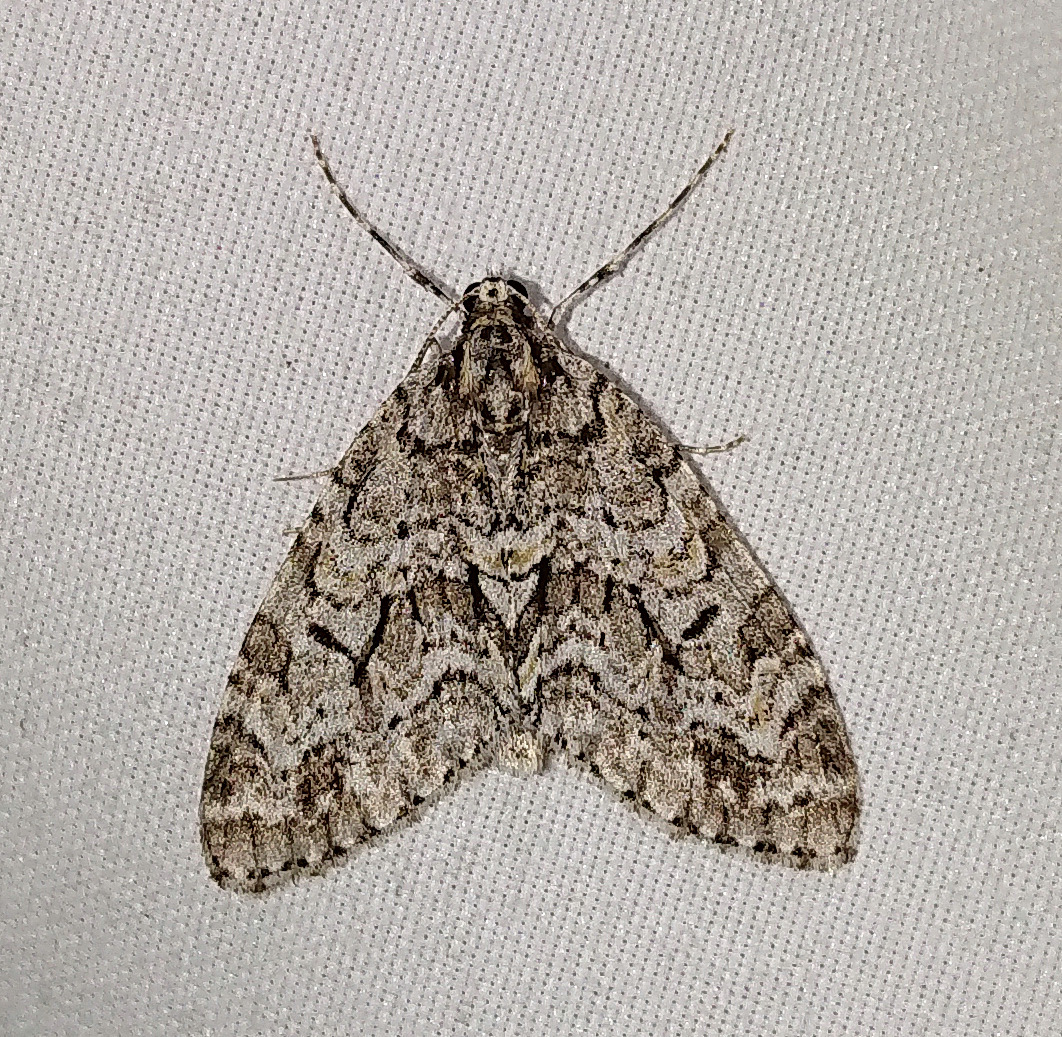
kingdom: Animalia
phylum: Arthropoda
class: Insecta
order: Lepidoptera
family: Geometridae
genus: Cladara
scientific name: Cladara limitaria
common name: Mottled gray carpet
